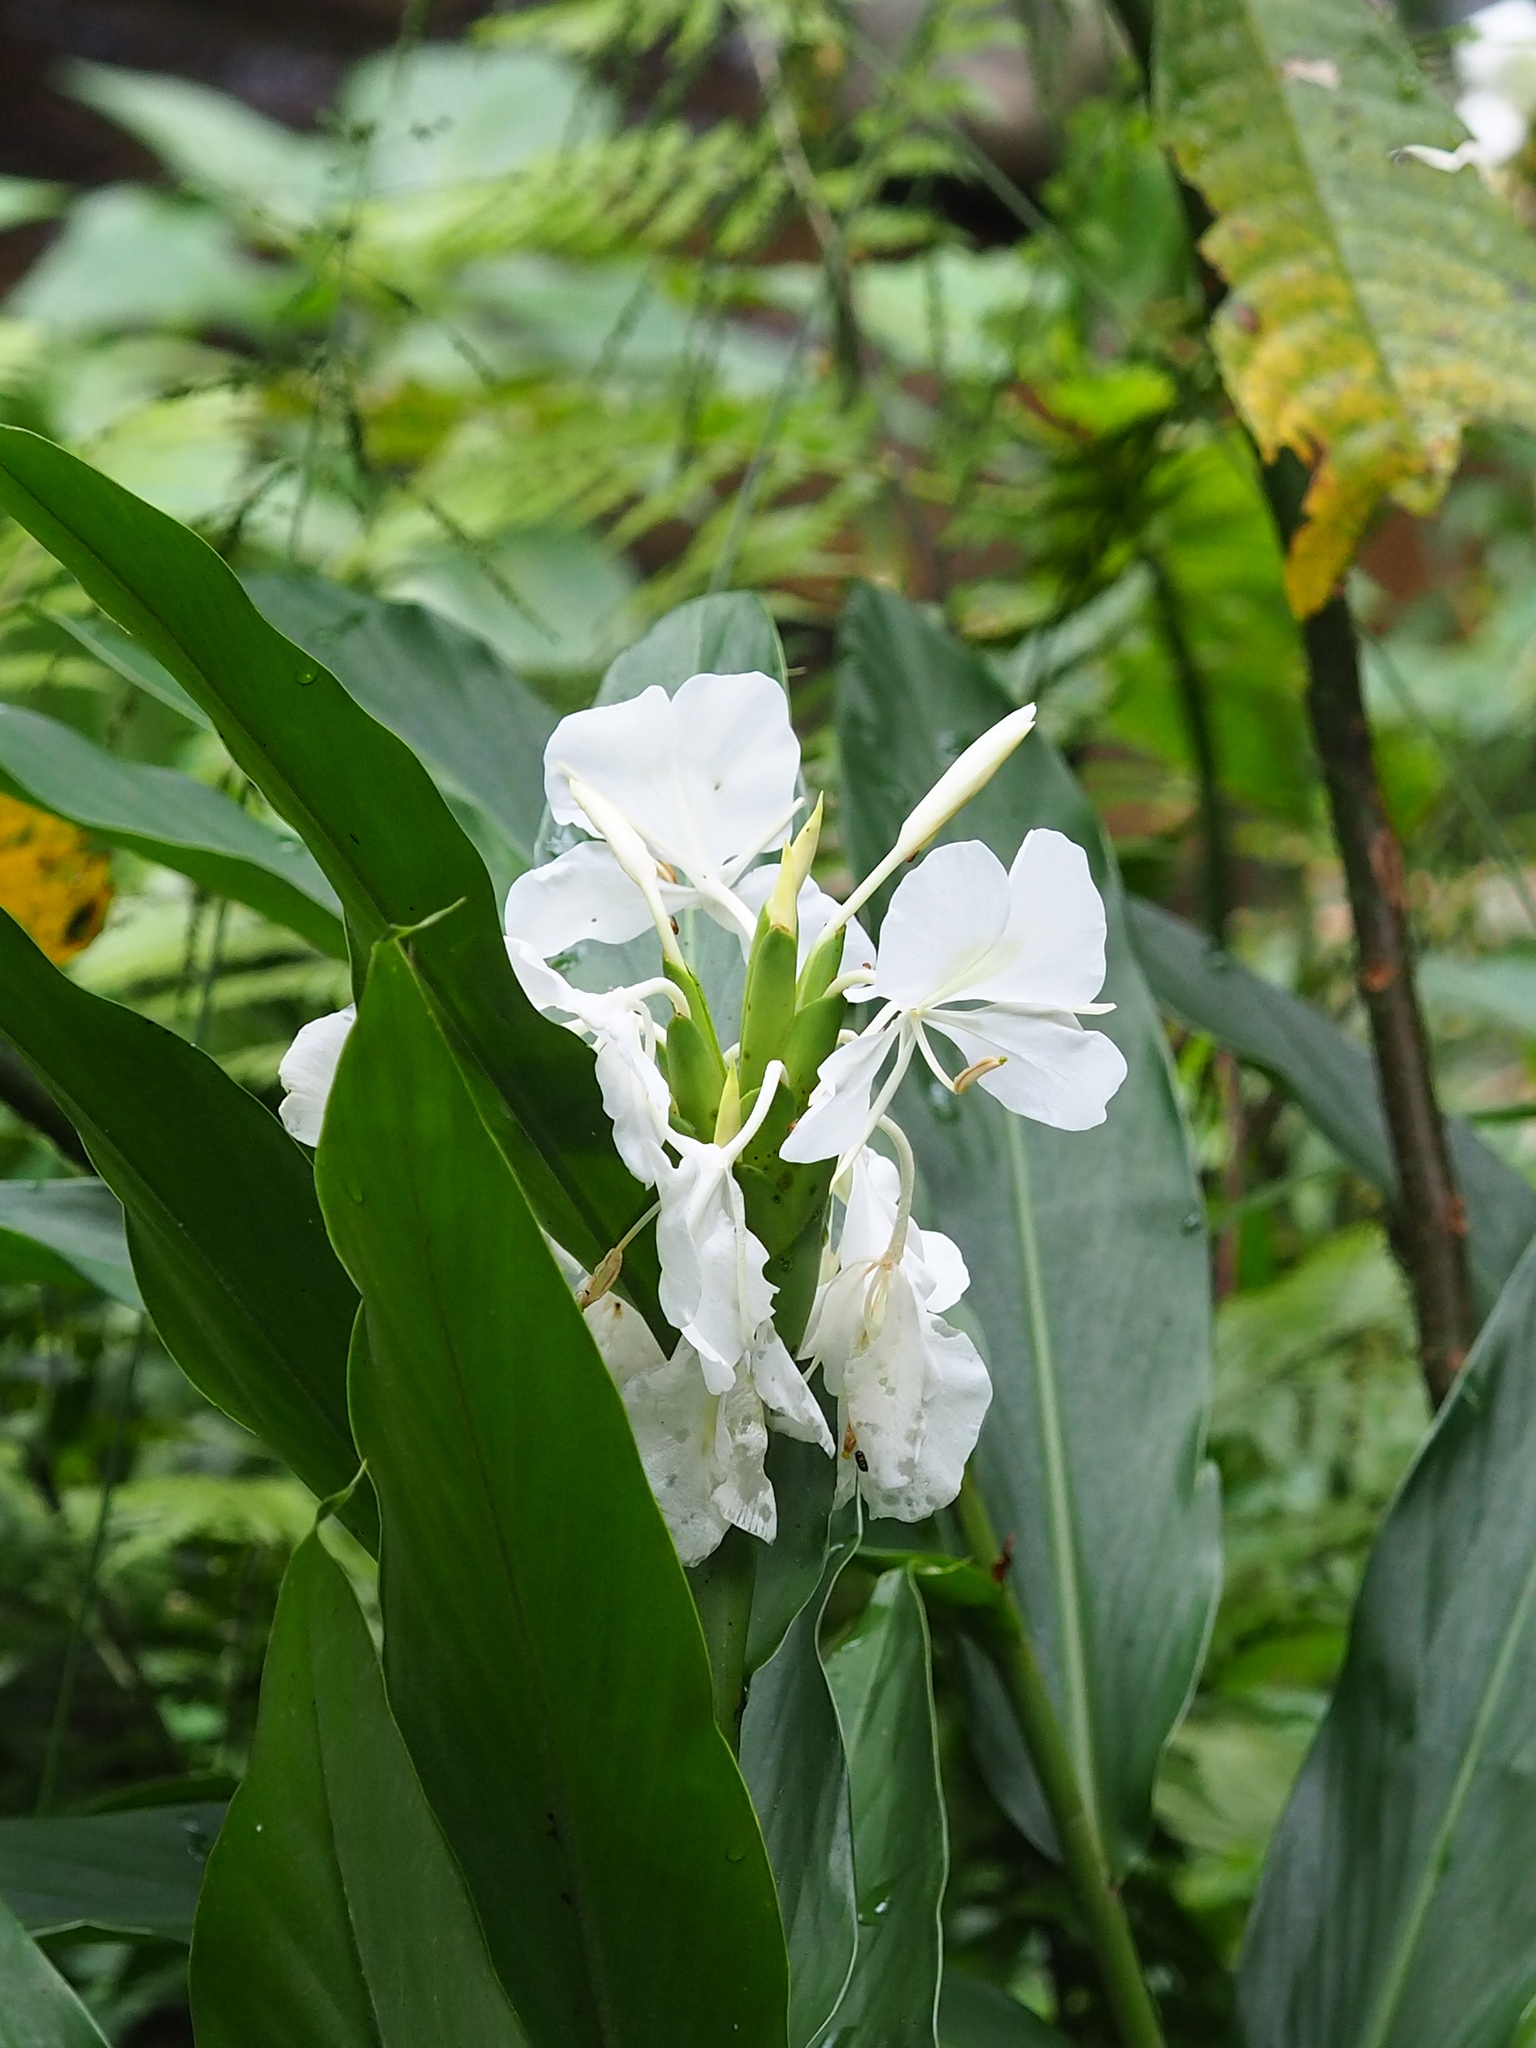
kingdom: Plantae
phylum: Tracheophyta
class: Liliopsida
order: Zingiberales
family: Zingiberaceae
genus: Hedychium
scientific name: Hedychium coronarium
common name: White garland-lily
